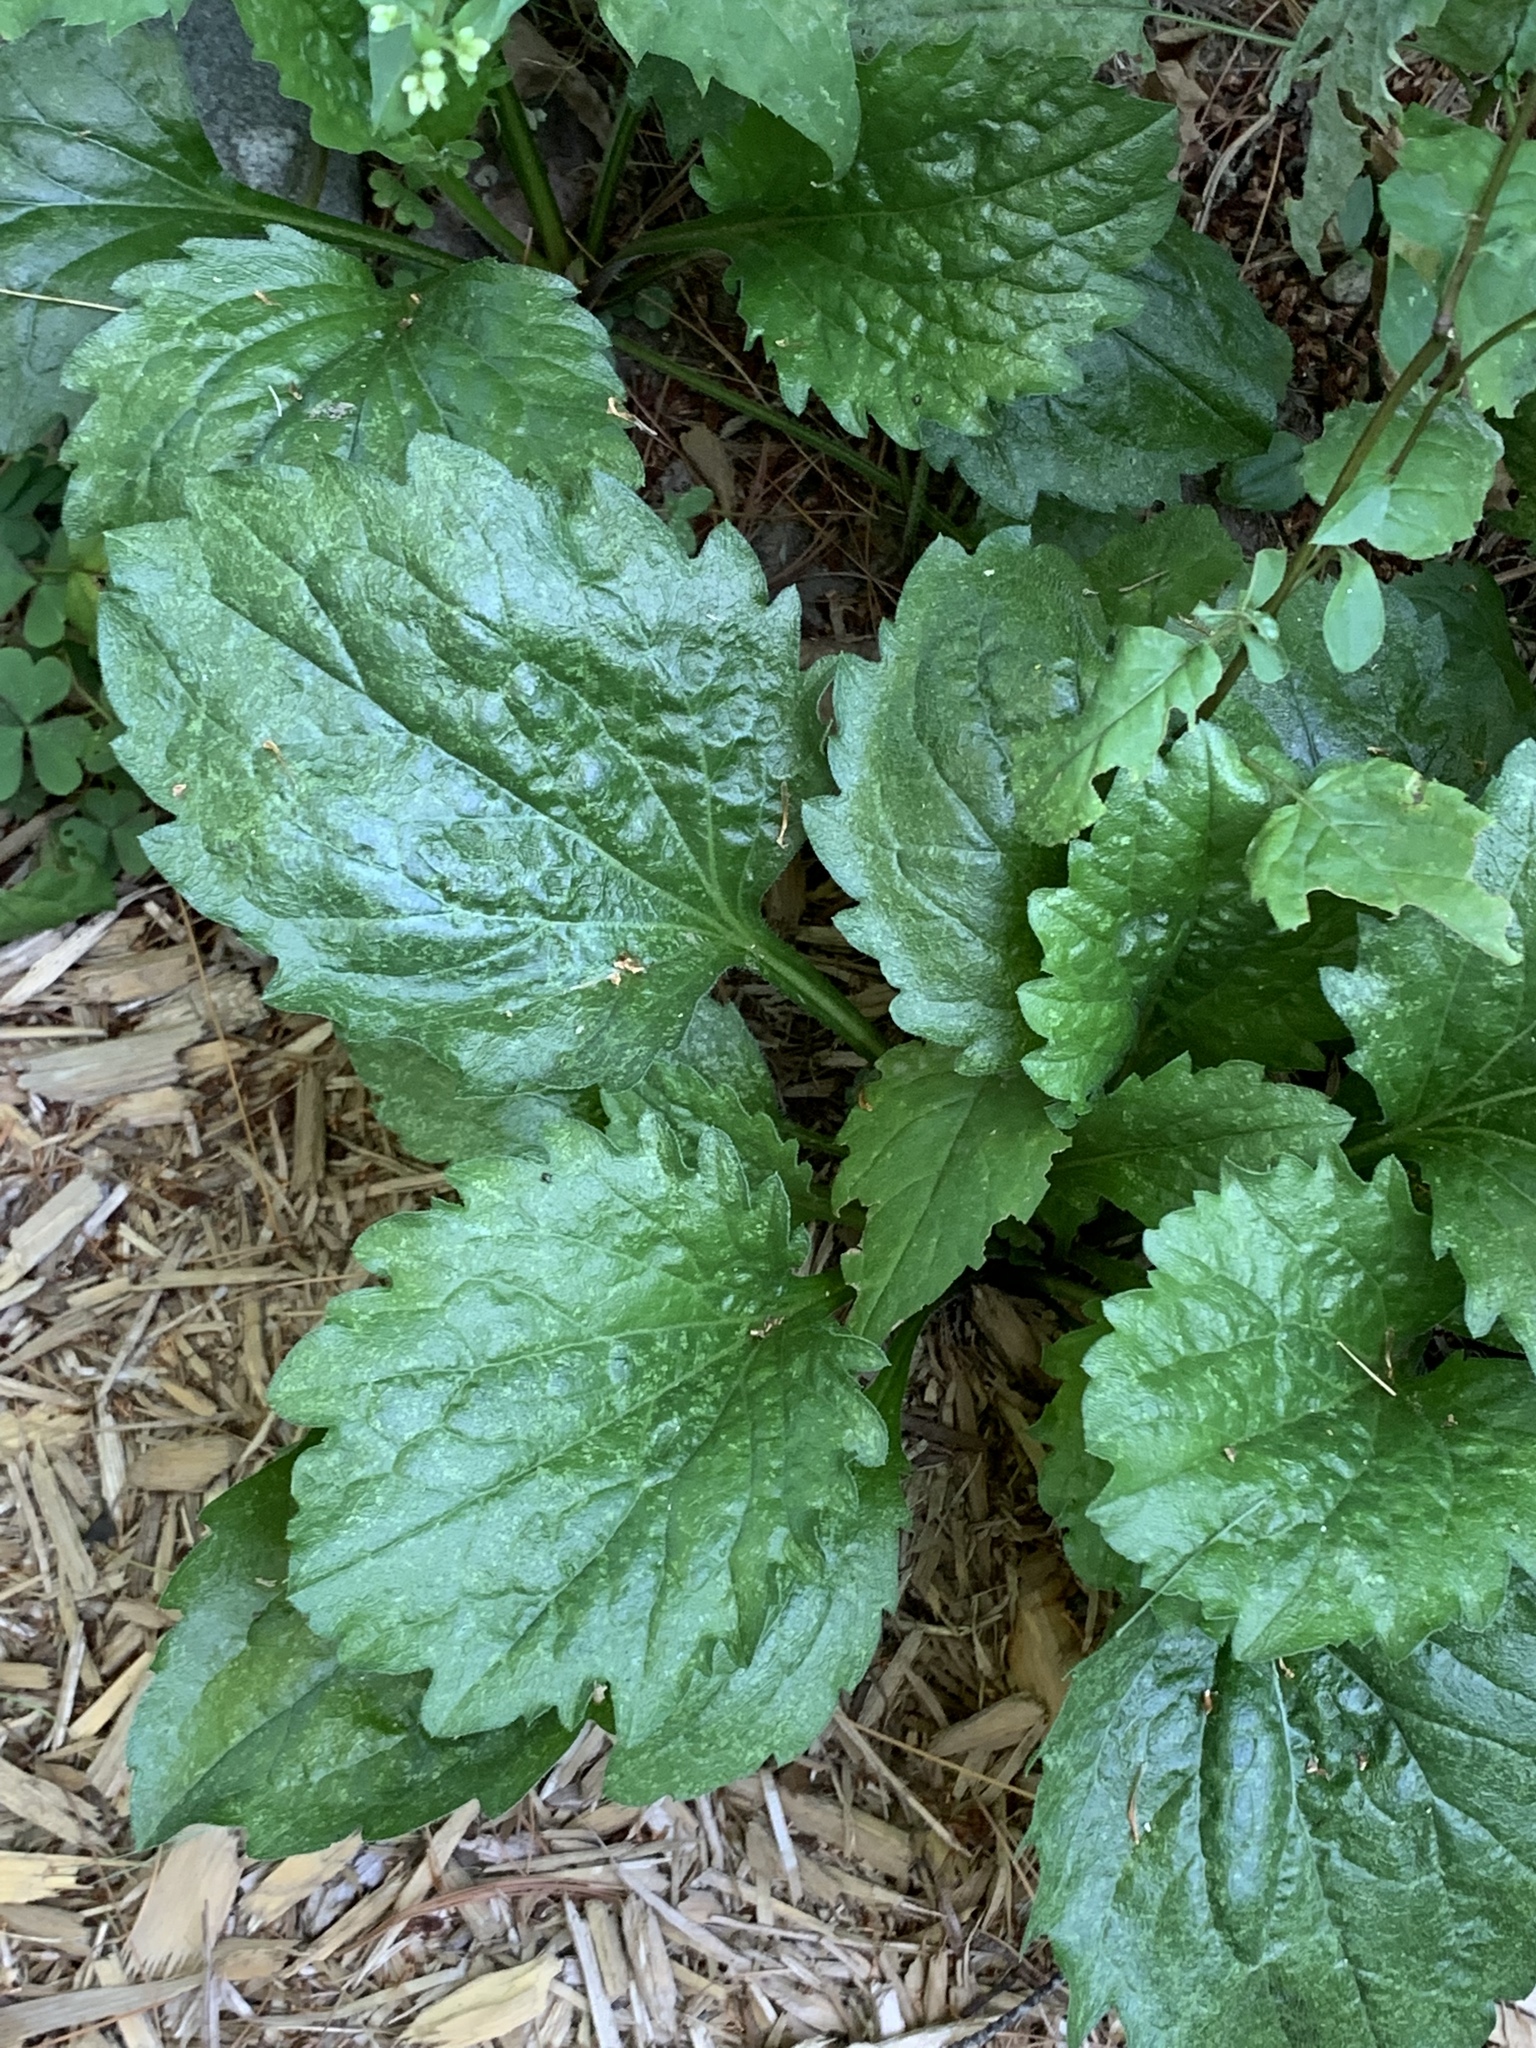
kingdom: Plantae
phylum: Tracheophyta
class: Magnoliopsida
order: Asterales
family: Asteraceae
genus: Erigeron
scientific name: Erigeron annuus
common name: Tall fleabane
